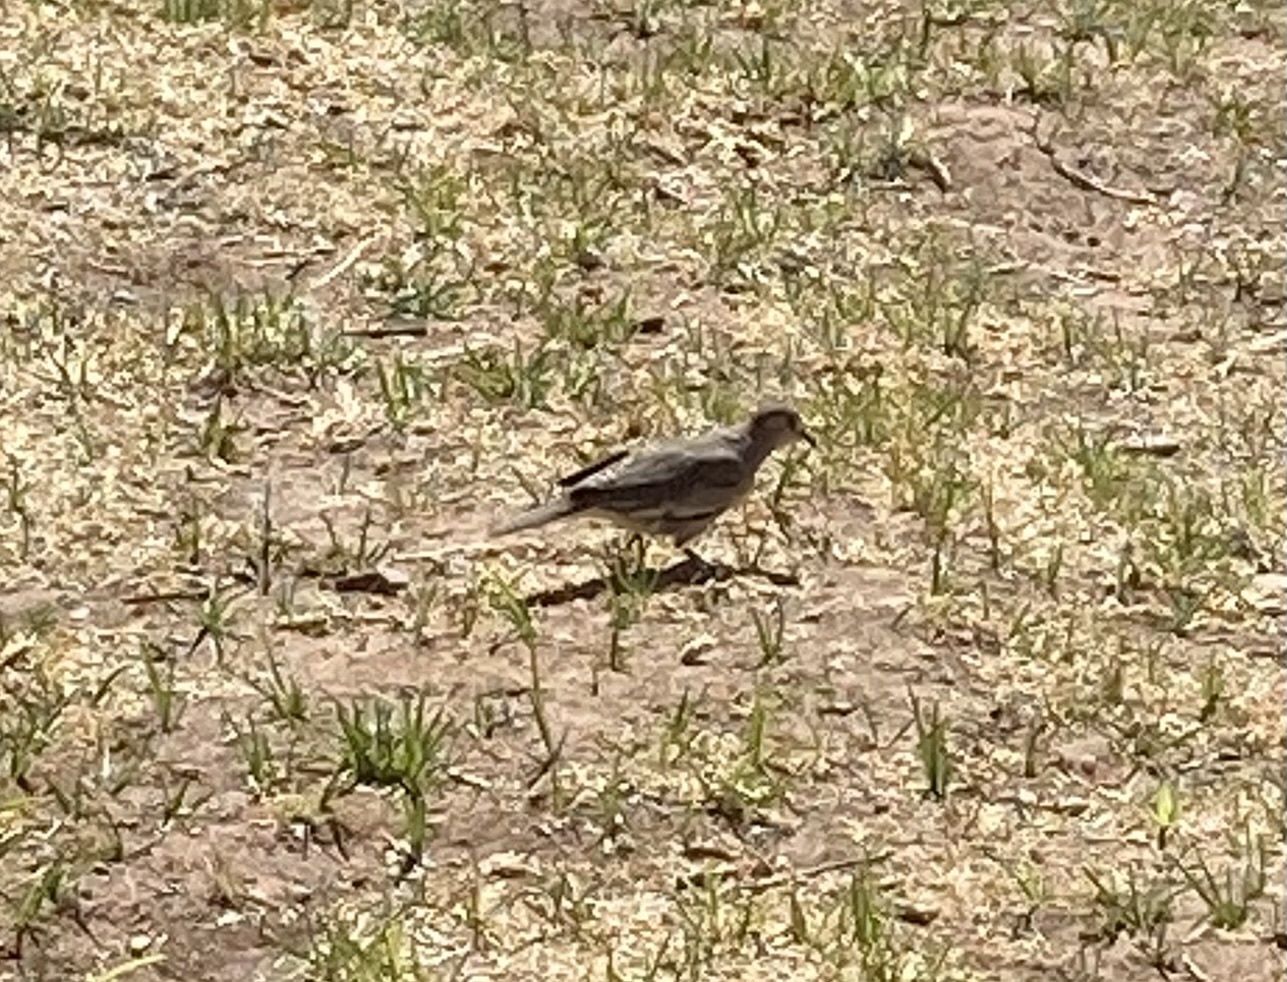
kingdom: Animalia
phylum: Chordata
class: Aves
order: Columbiformes
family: Columbidae
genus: Columbina
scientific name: Columbina picui
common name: Picui ground dove
